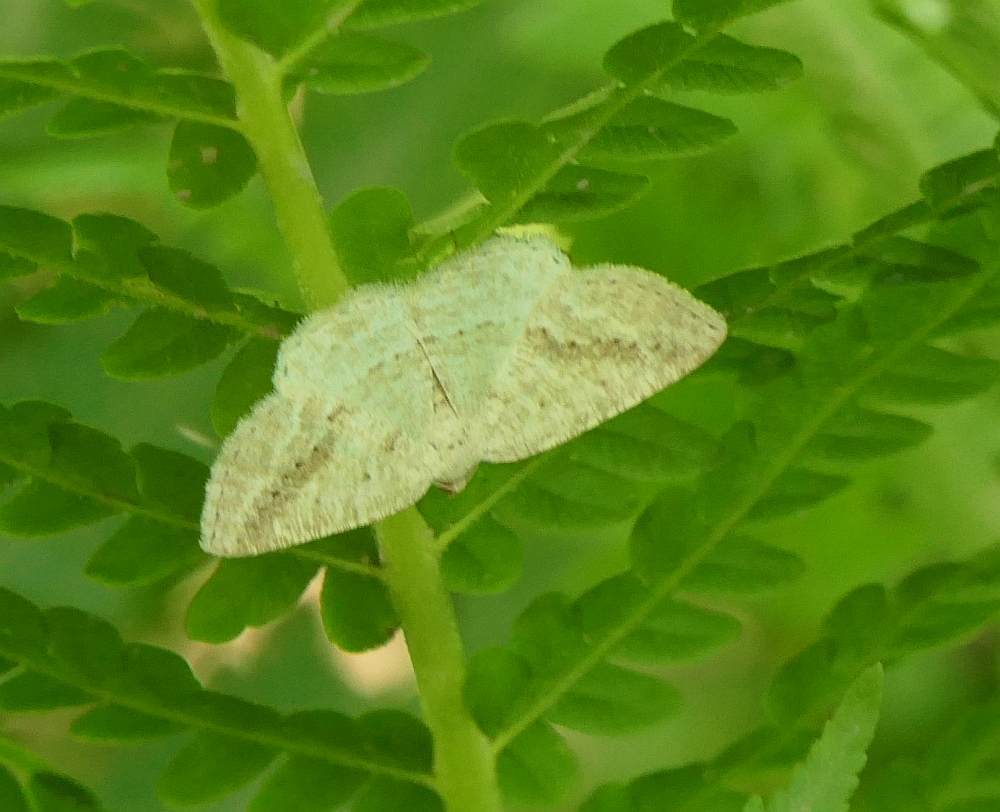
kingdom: Animalia
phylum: Arthropoda
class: Insecta
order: Lepidoptera
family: Geometridae
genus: Tacparia
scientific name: Tacparia detersata
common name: Pale alder moth
